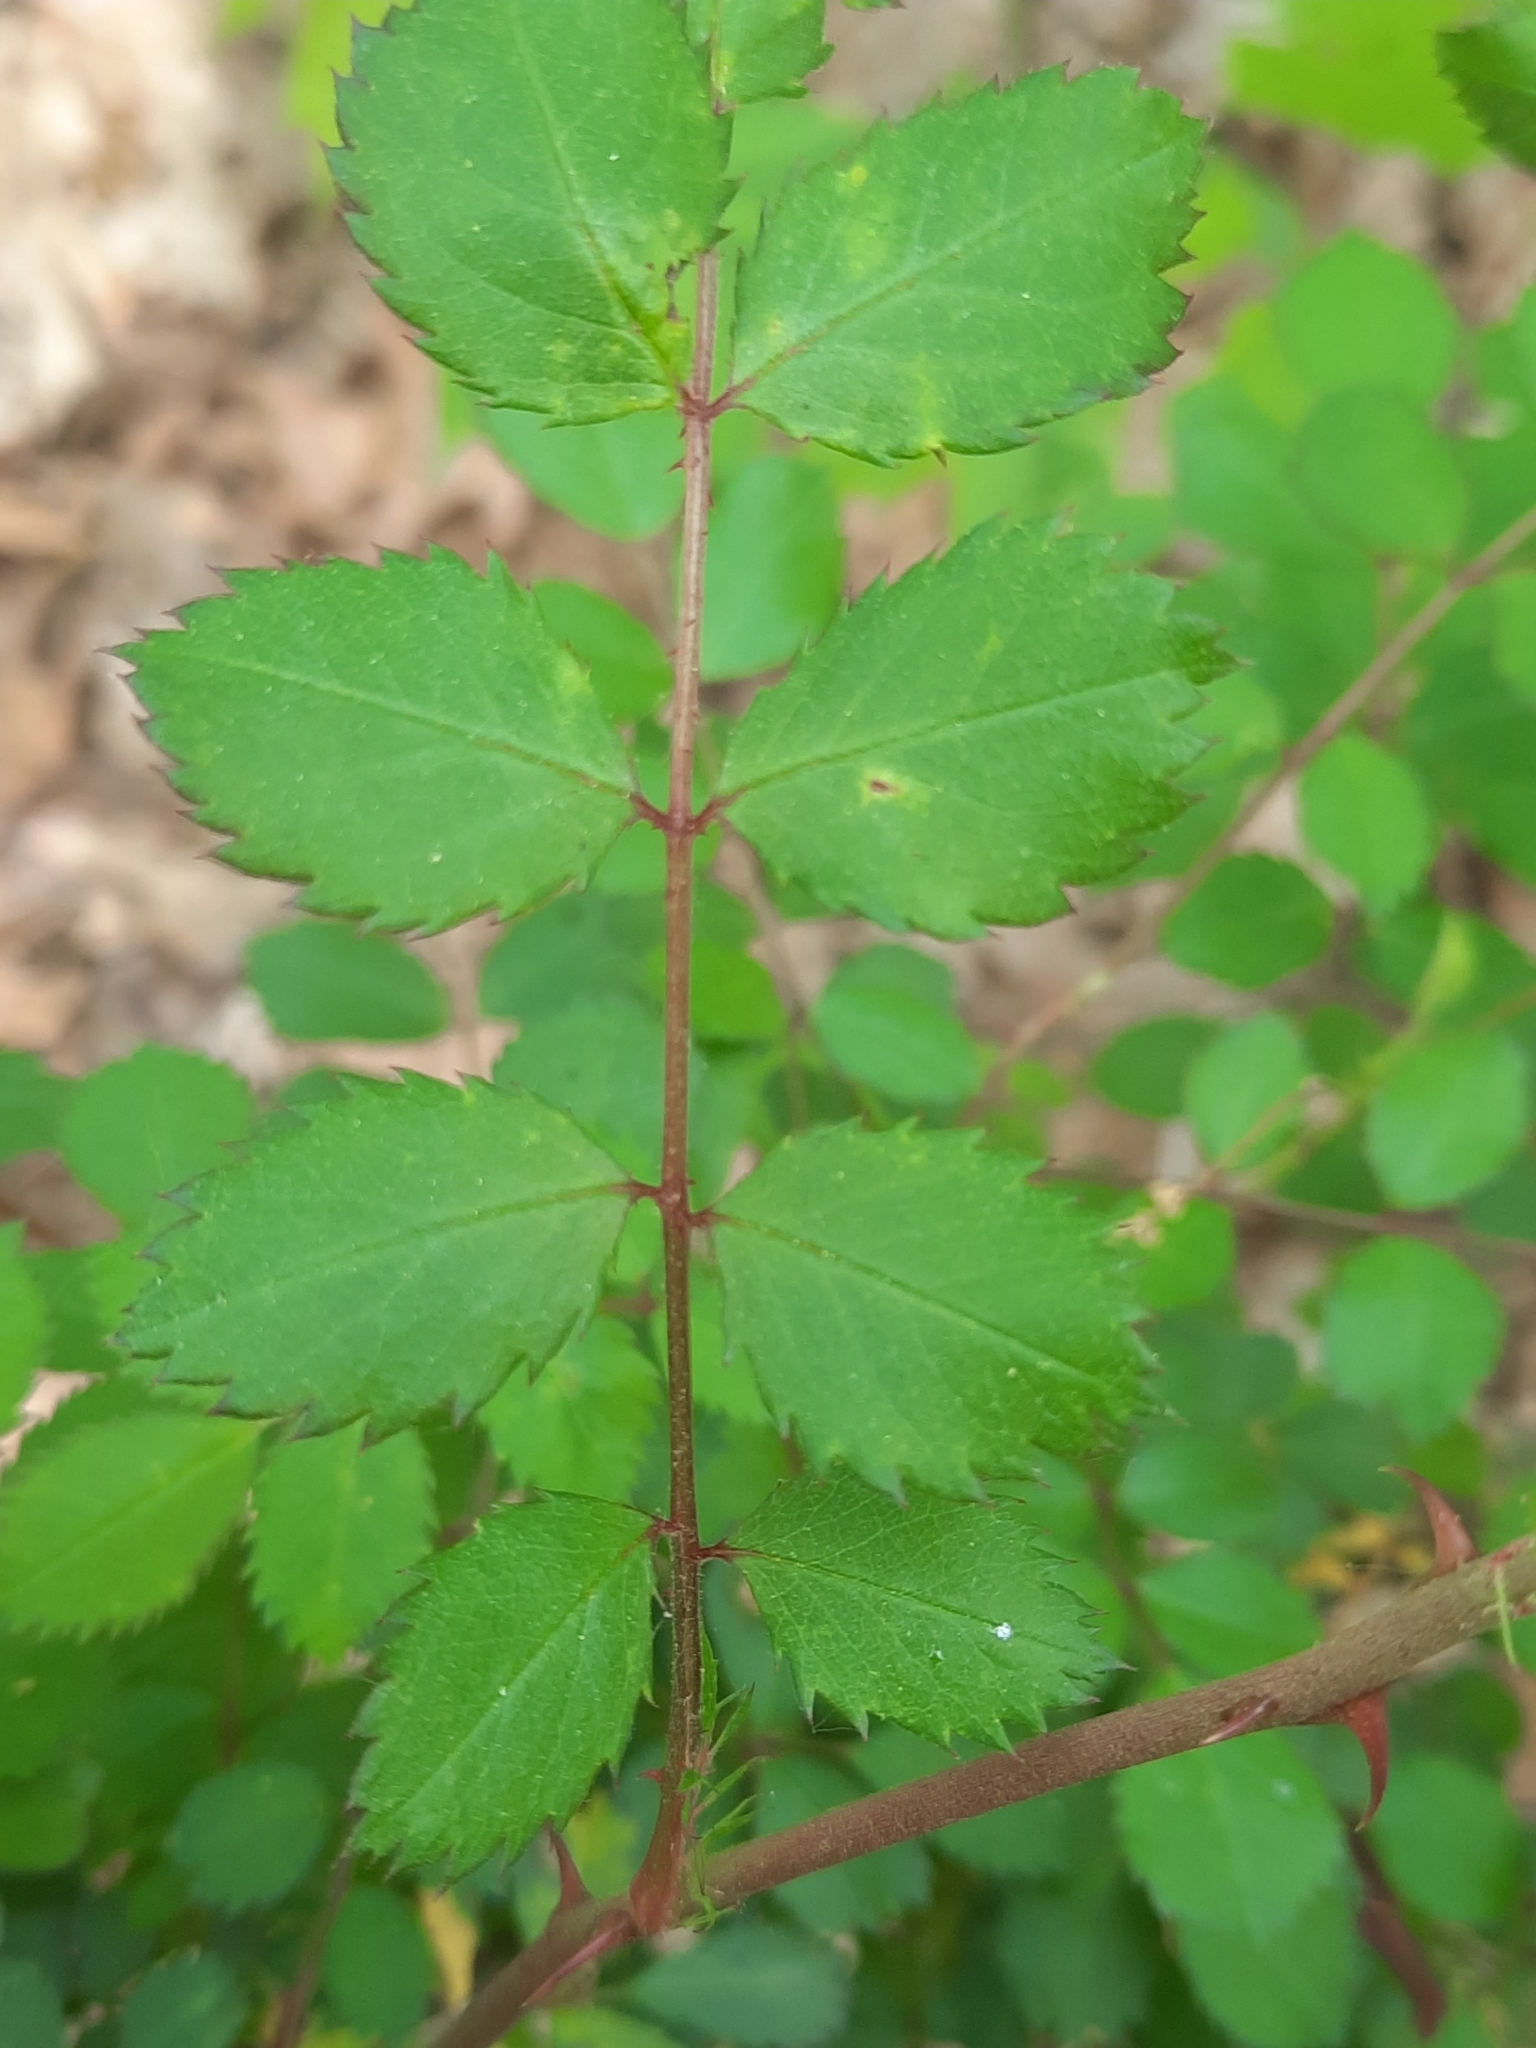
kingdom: Plantae
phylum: Tracheophyta
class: Magnoliopsida
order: Rosales
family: Rosaceae
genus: Rosa
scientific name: Rosa multiflora
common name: Multiflora rose
